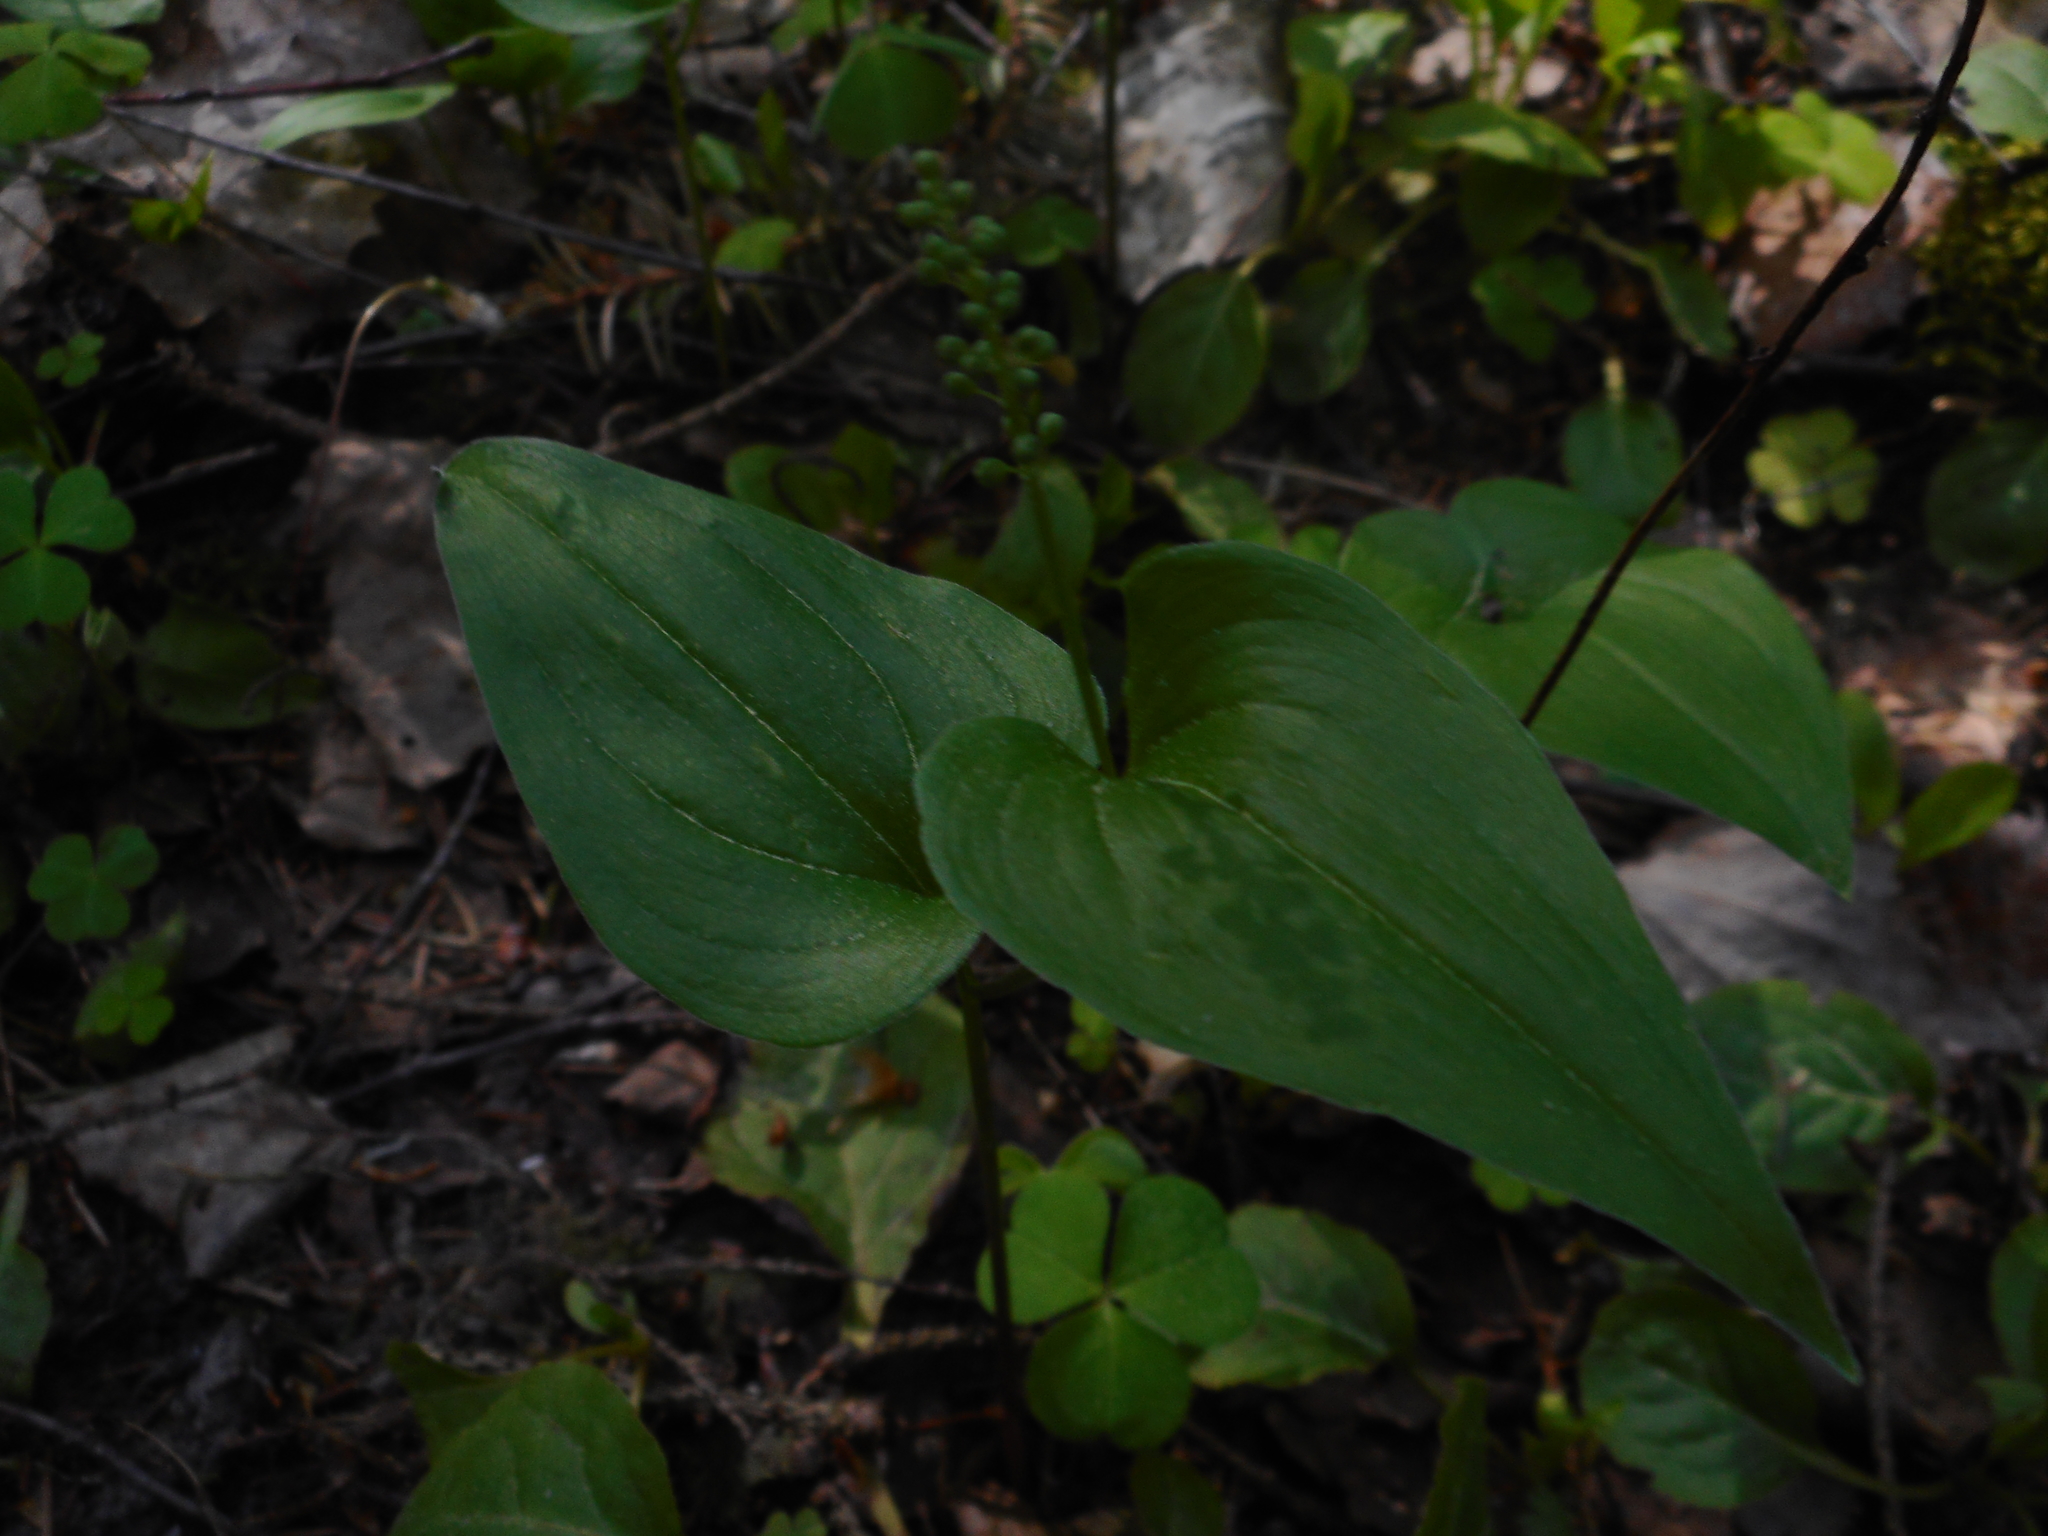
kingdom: Plantae
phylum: Tracheophyta
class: Liliopsida
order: Asparagales
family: Asparagaceae
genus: Maianthemum
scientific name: Maianthemum bifolium
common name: May lily
